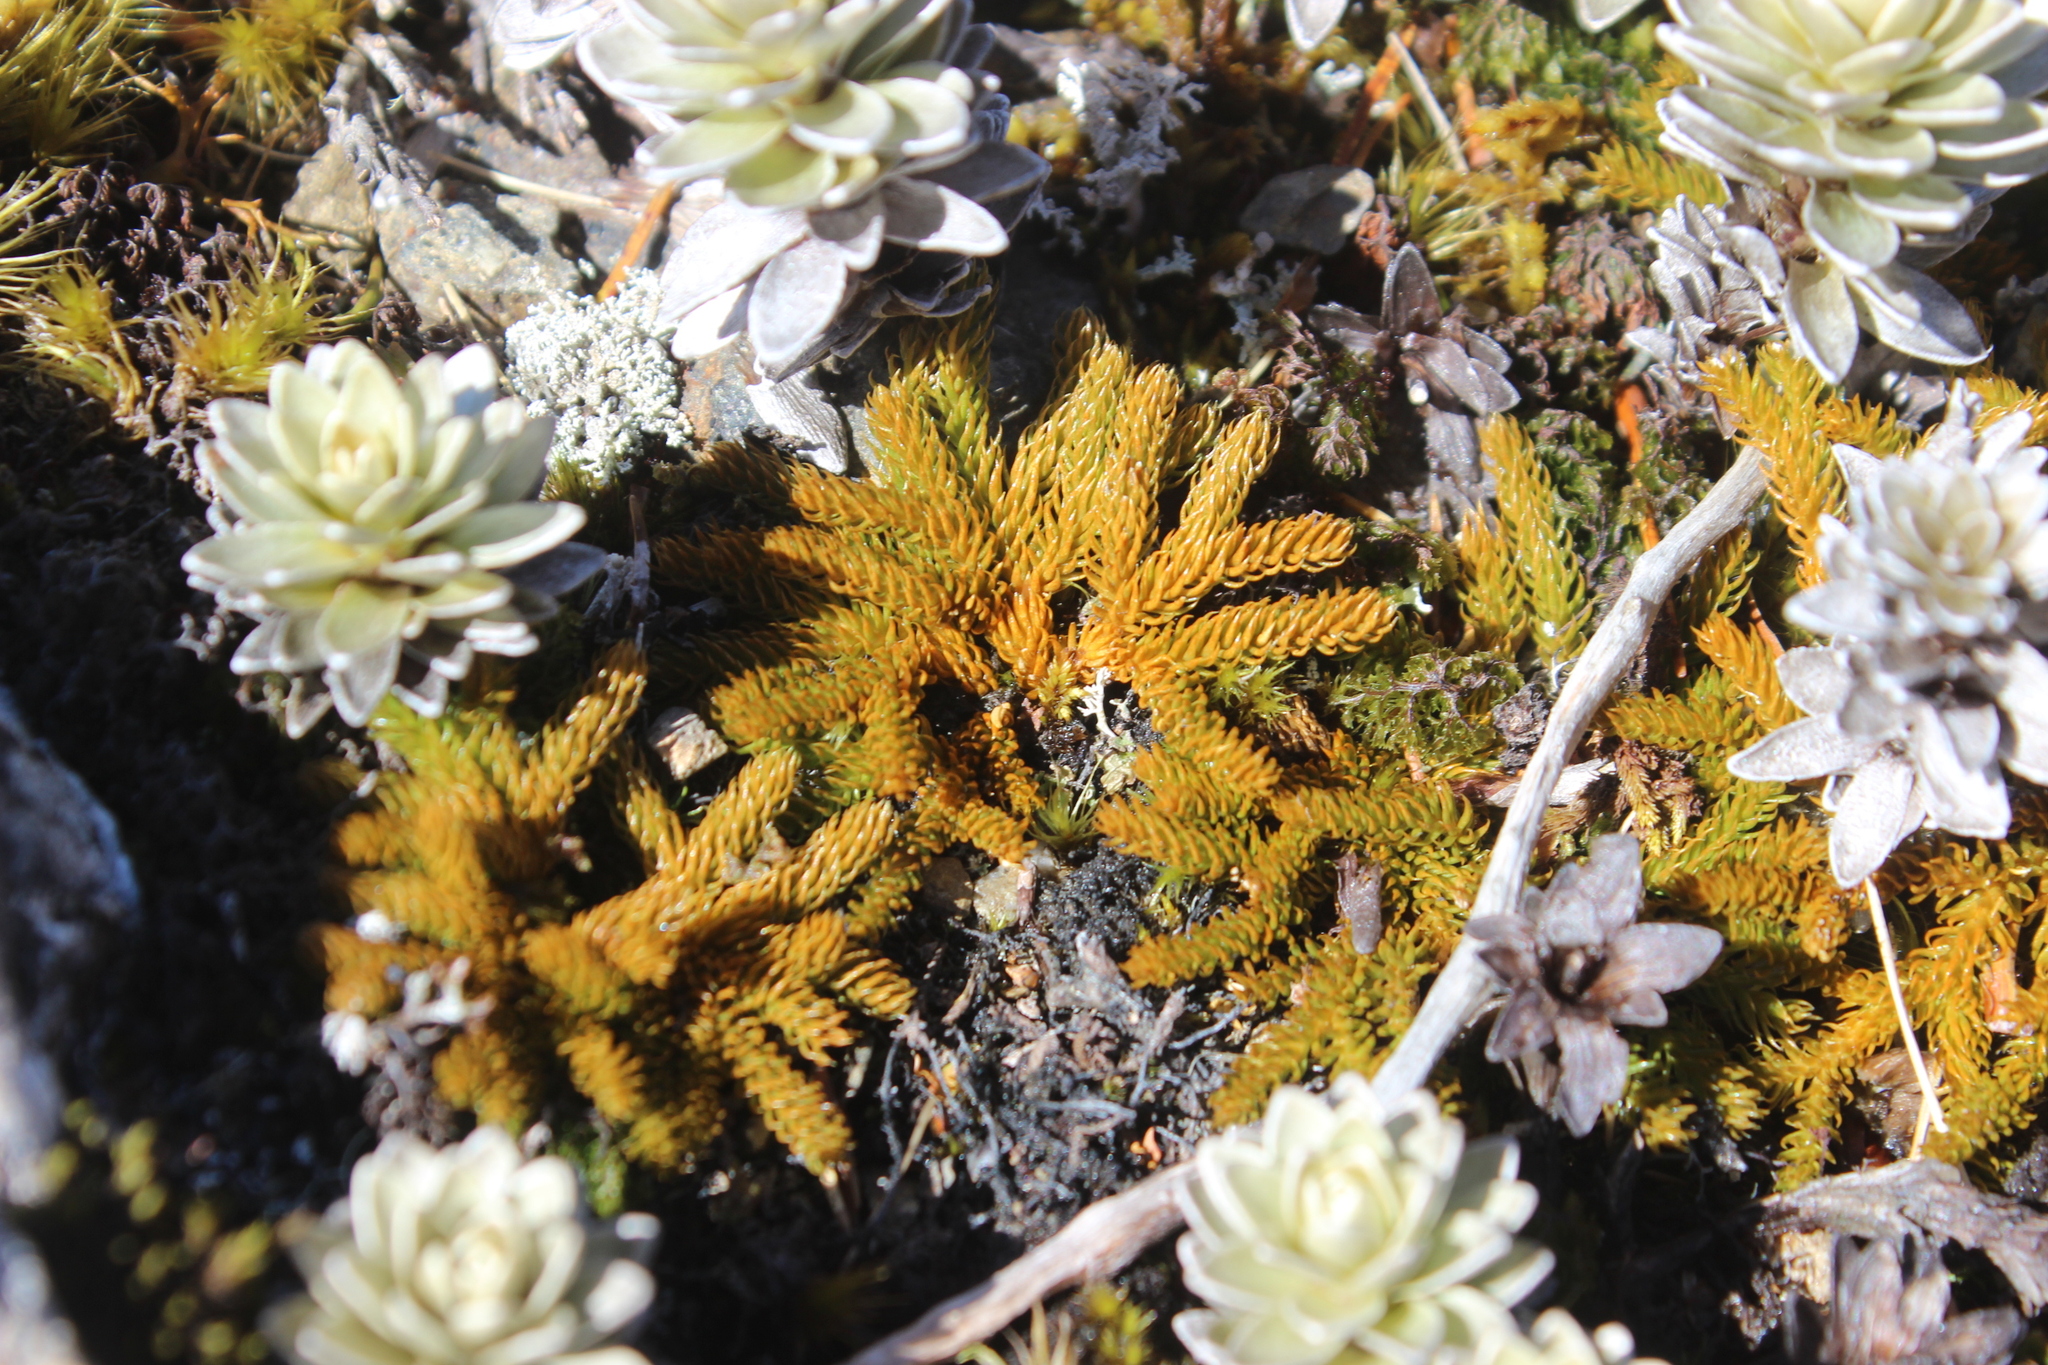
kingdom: Plantae
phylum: Tracheophyta
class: Lycopodiopsida
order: Lycopodiales
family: Lycopodiaceae
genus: Austrolycopodium
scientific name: Austrolycopodium fastigiatum
